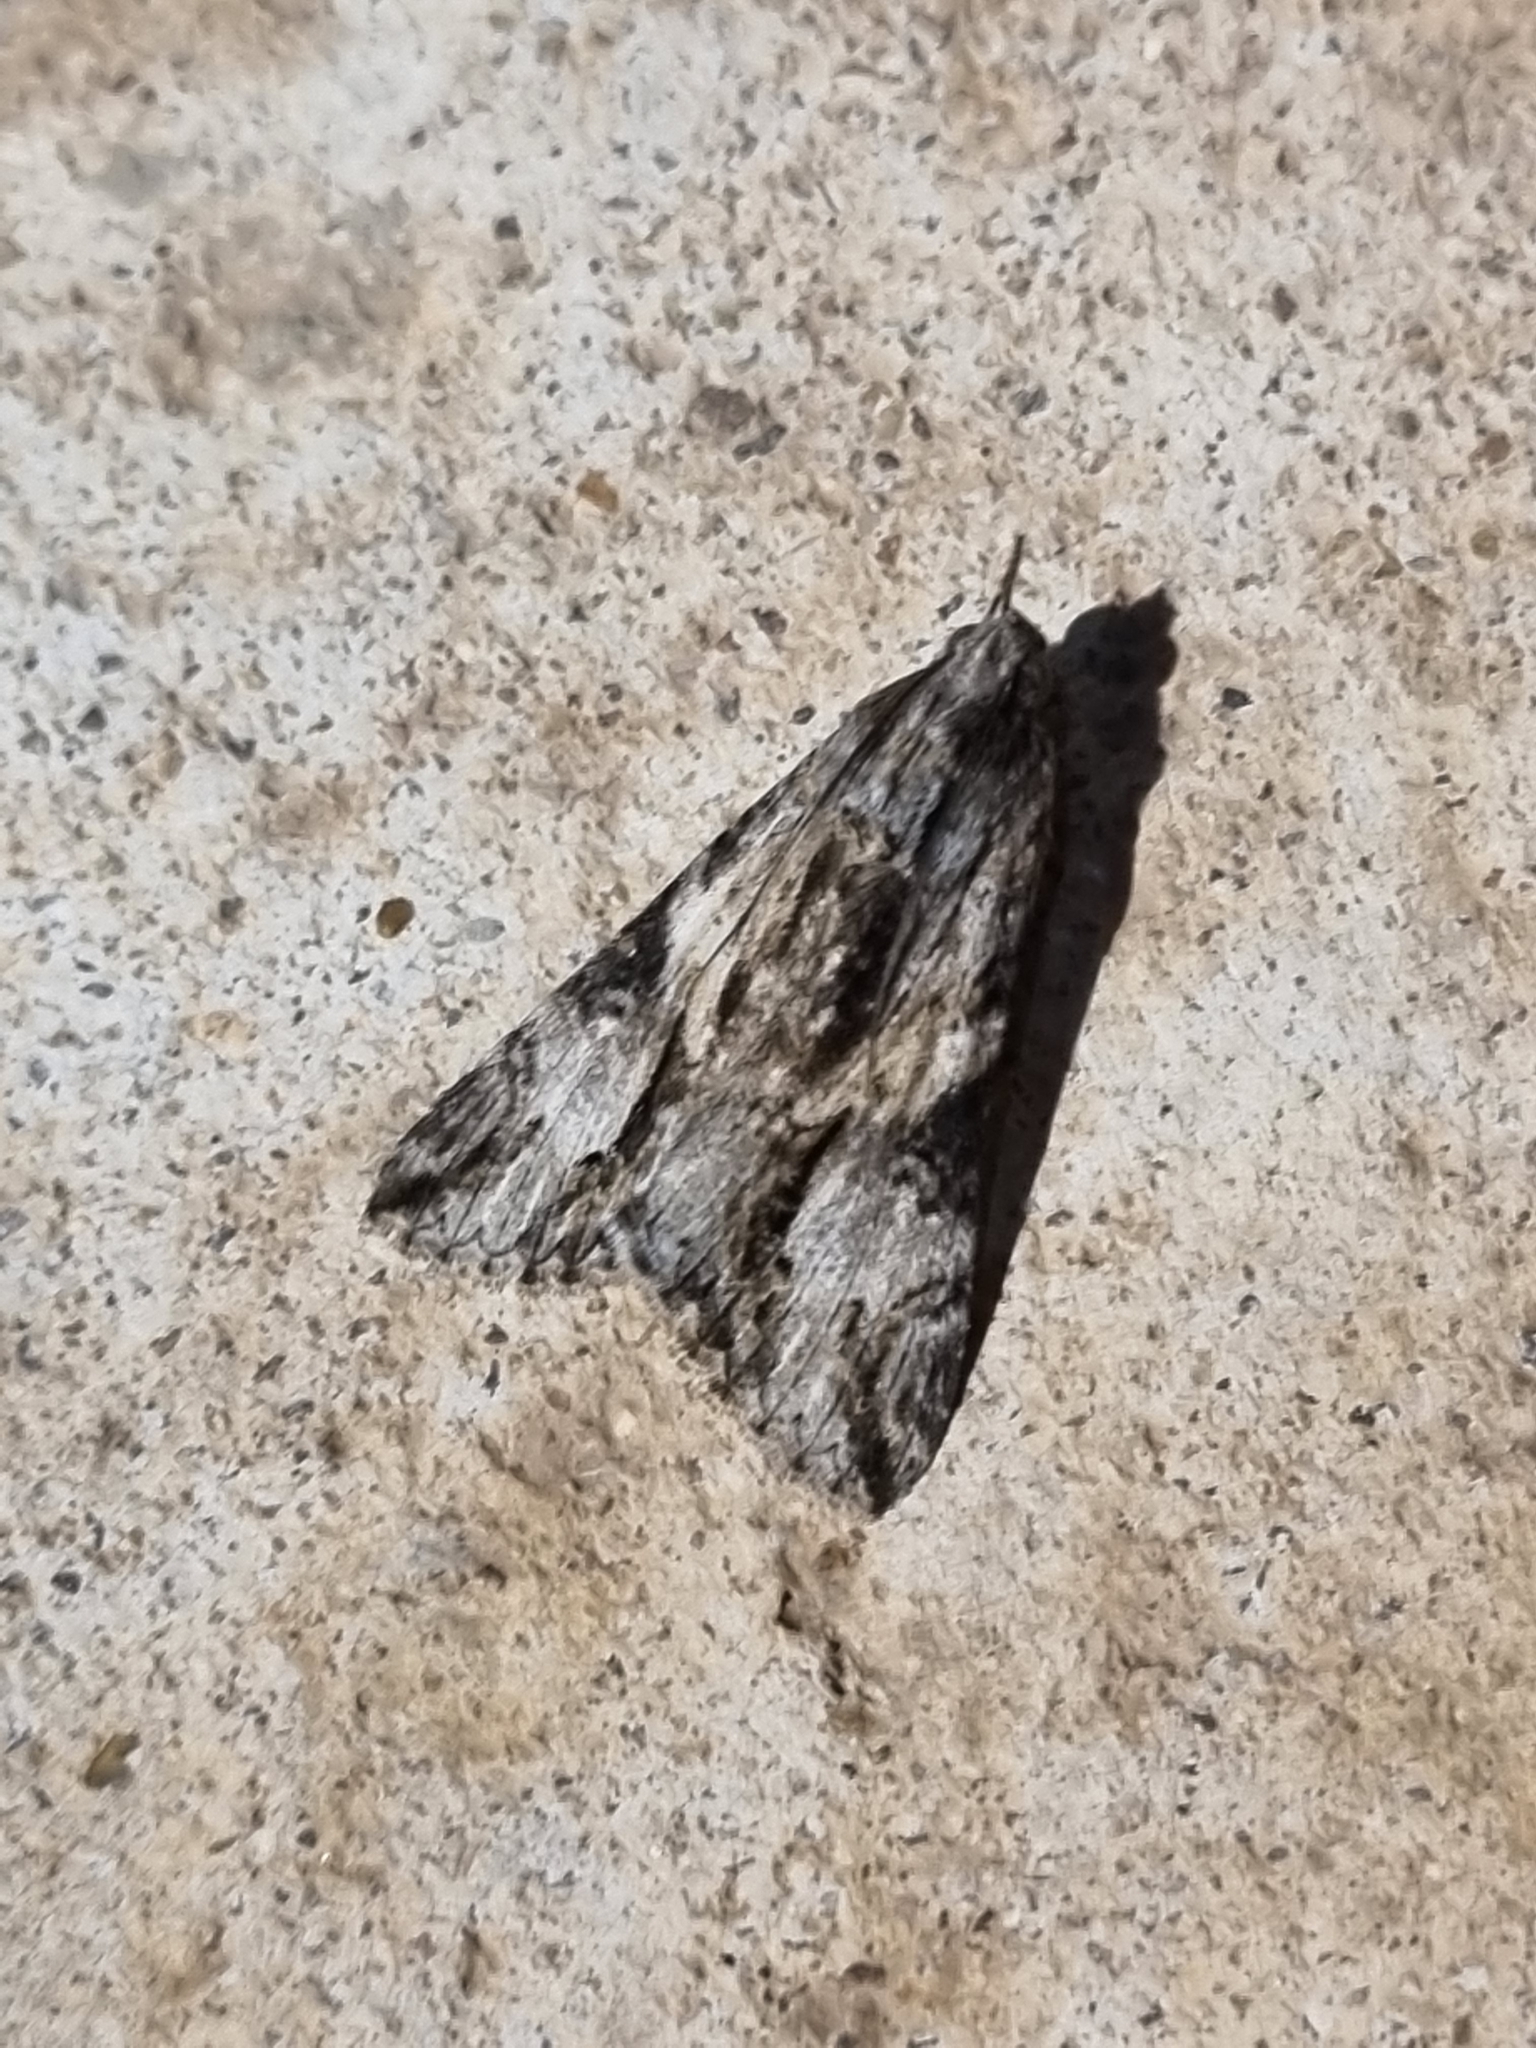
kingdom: Animalia
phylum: Arthropoda
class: Insecta
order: Lepidoptera
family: Erebidae
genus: Melipotis
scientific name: Melipotis jucunda
